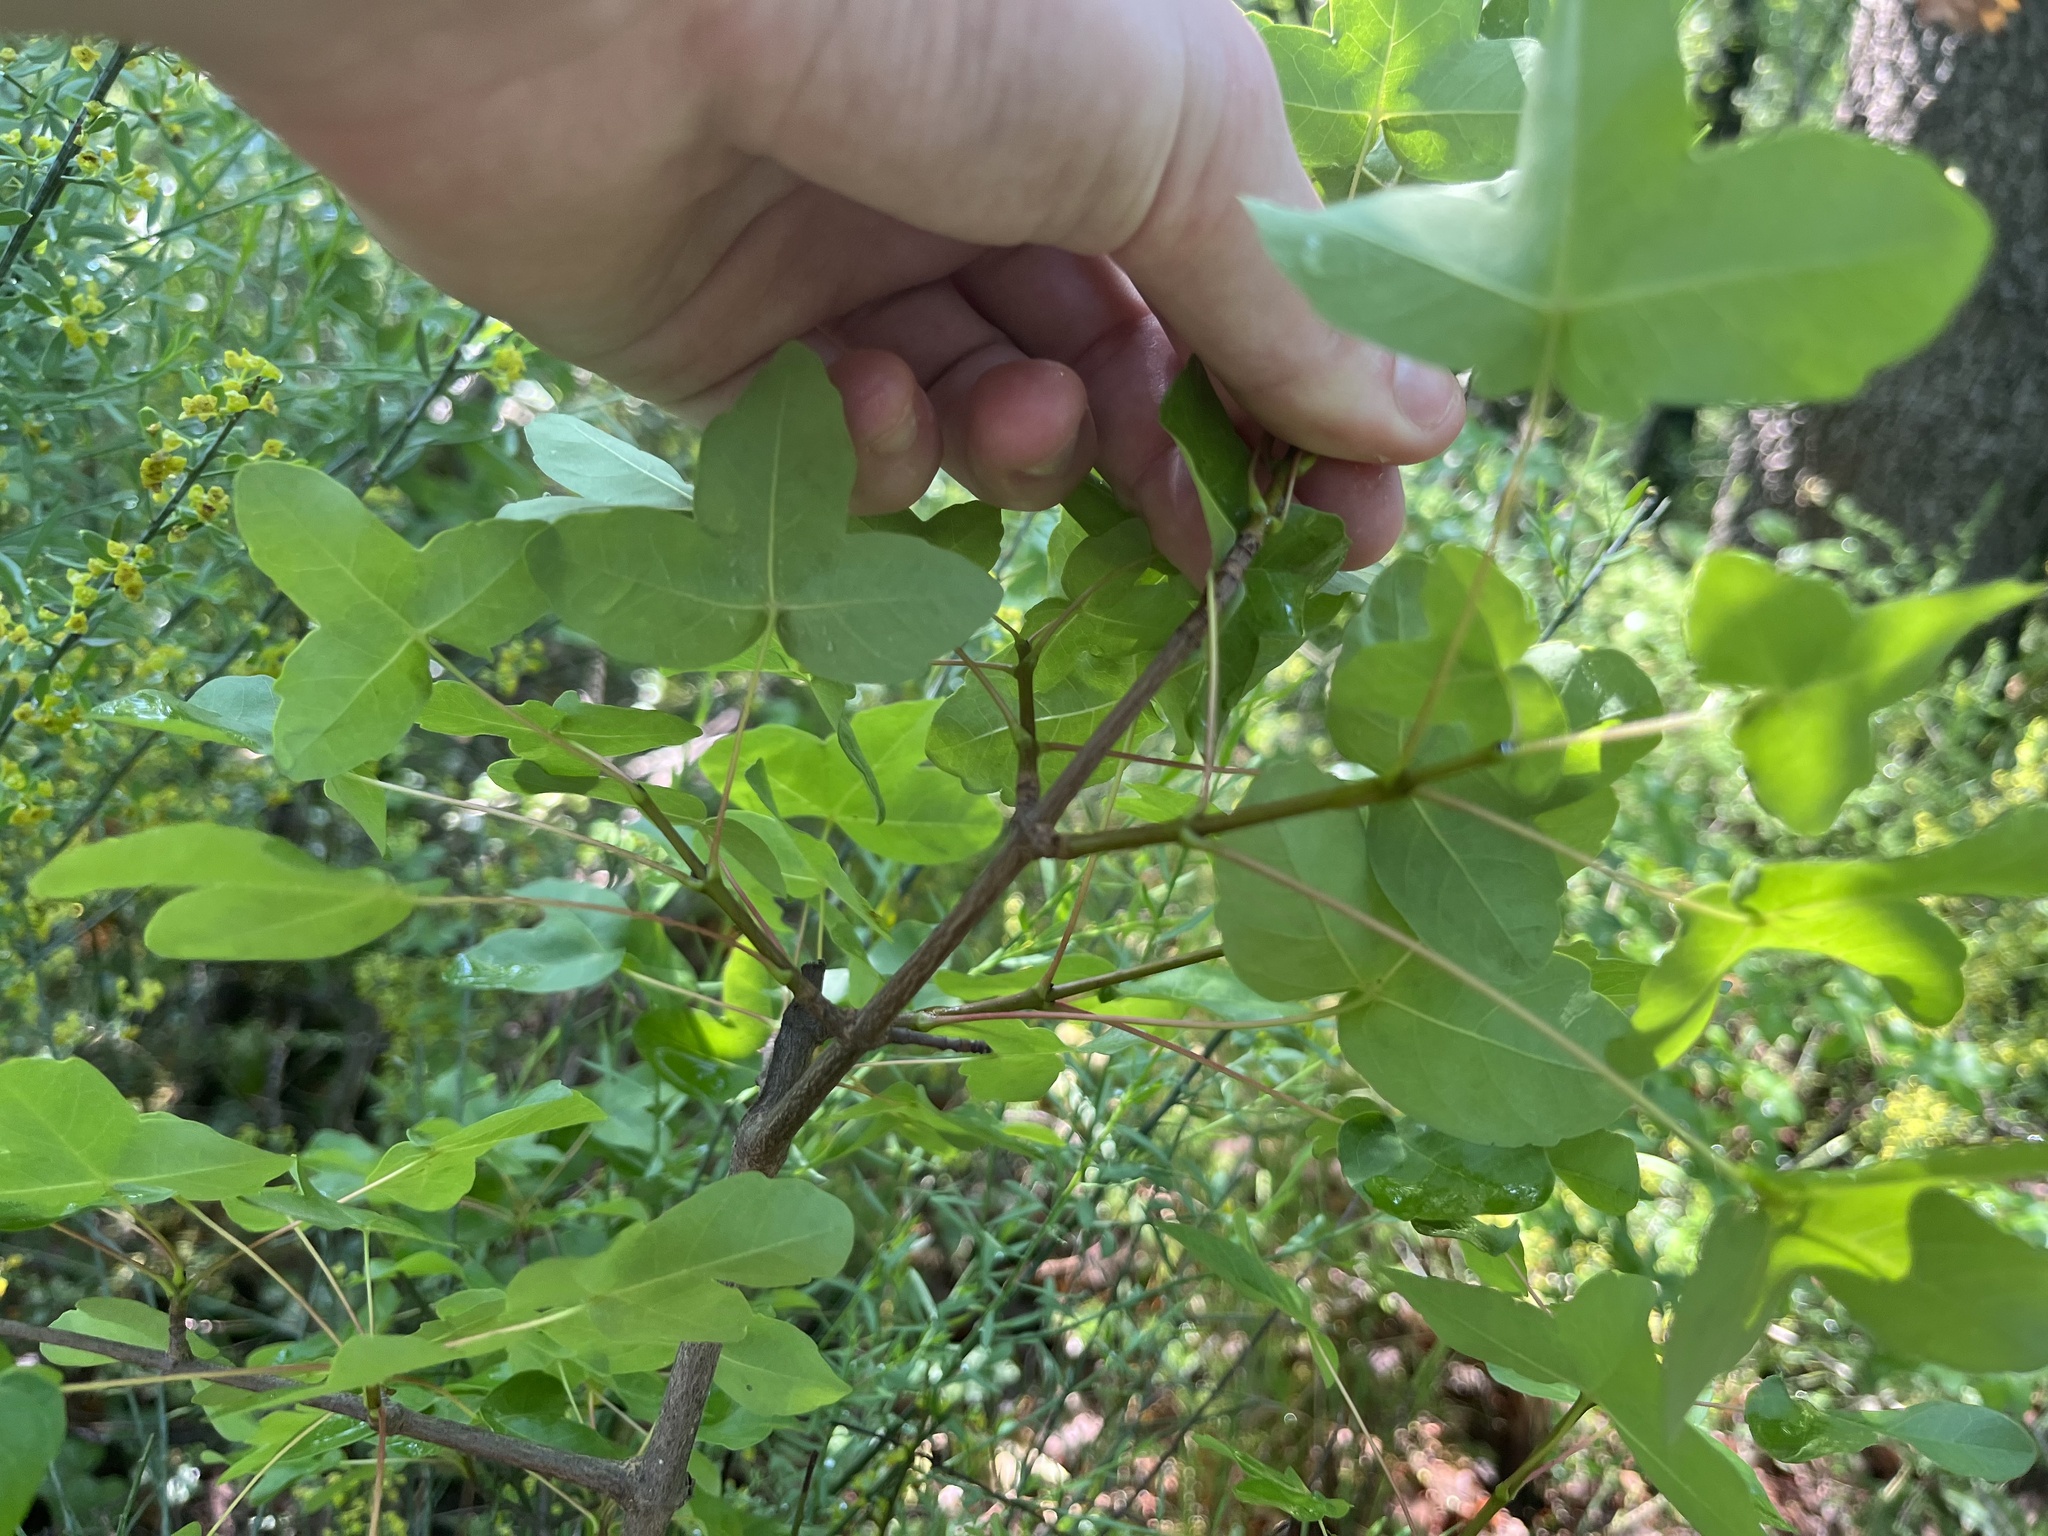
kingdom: Plantae
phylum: Tracheophyta
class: Magnoliopsida
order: Sapindales
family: Sapindaceae
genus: Acer
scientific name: Acer monspessulanum
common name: Montpellier maple
